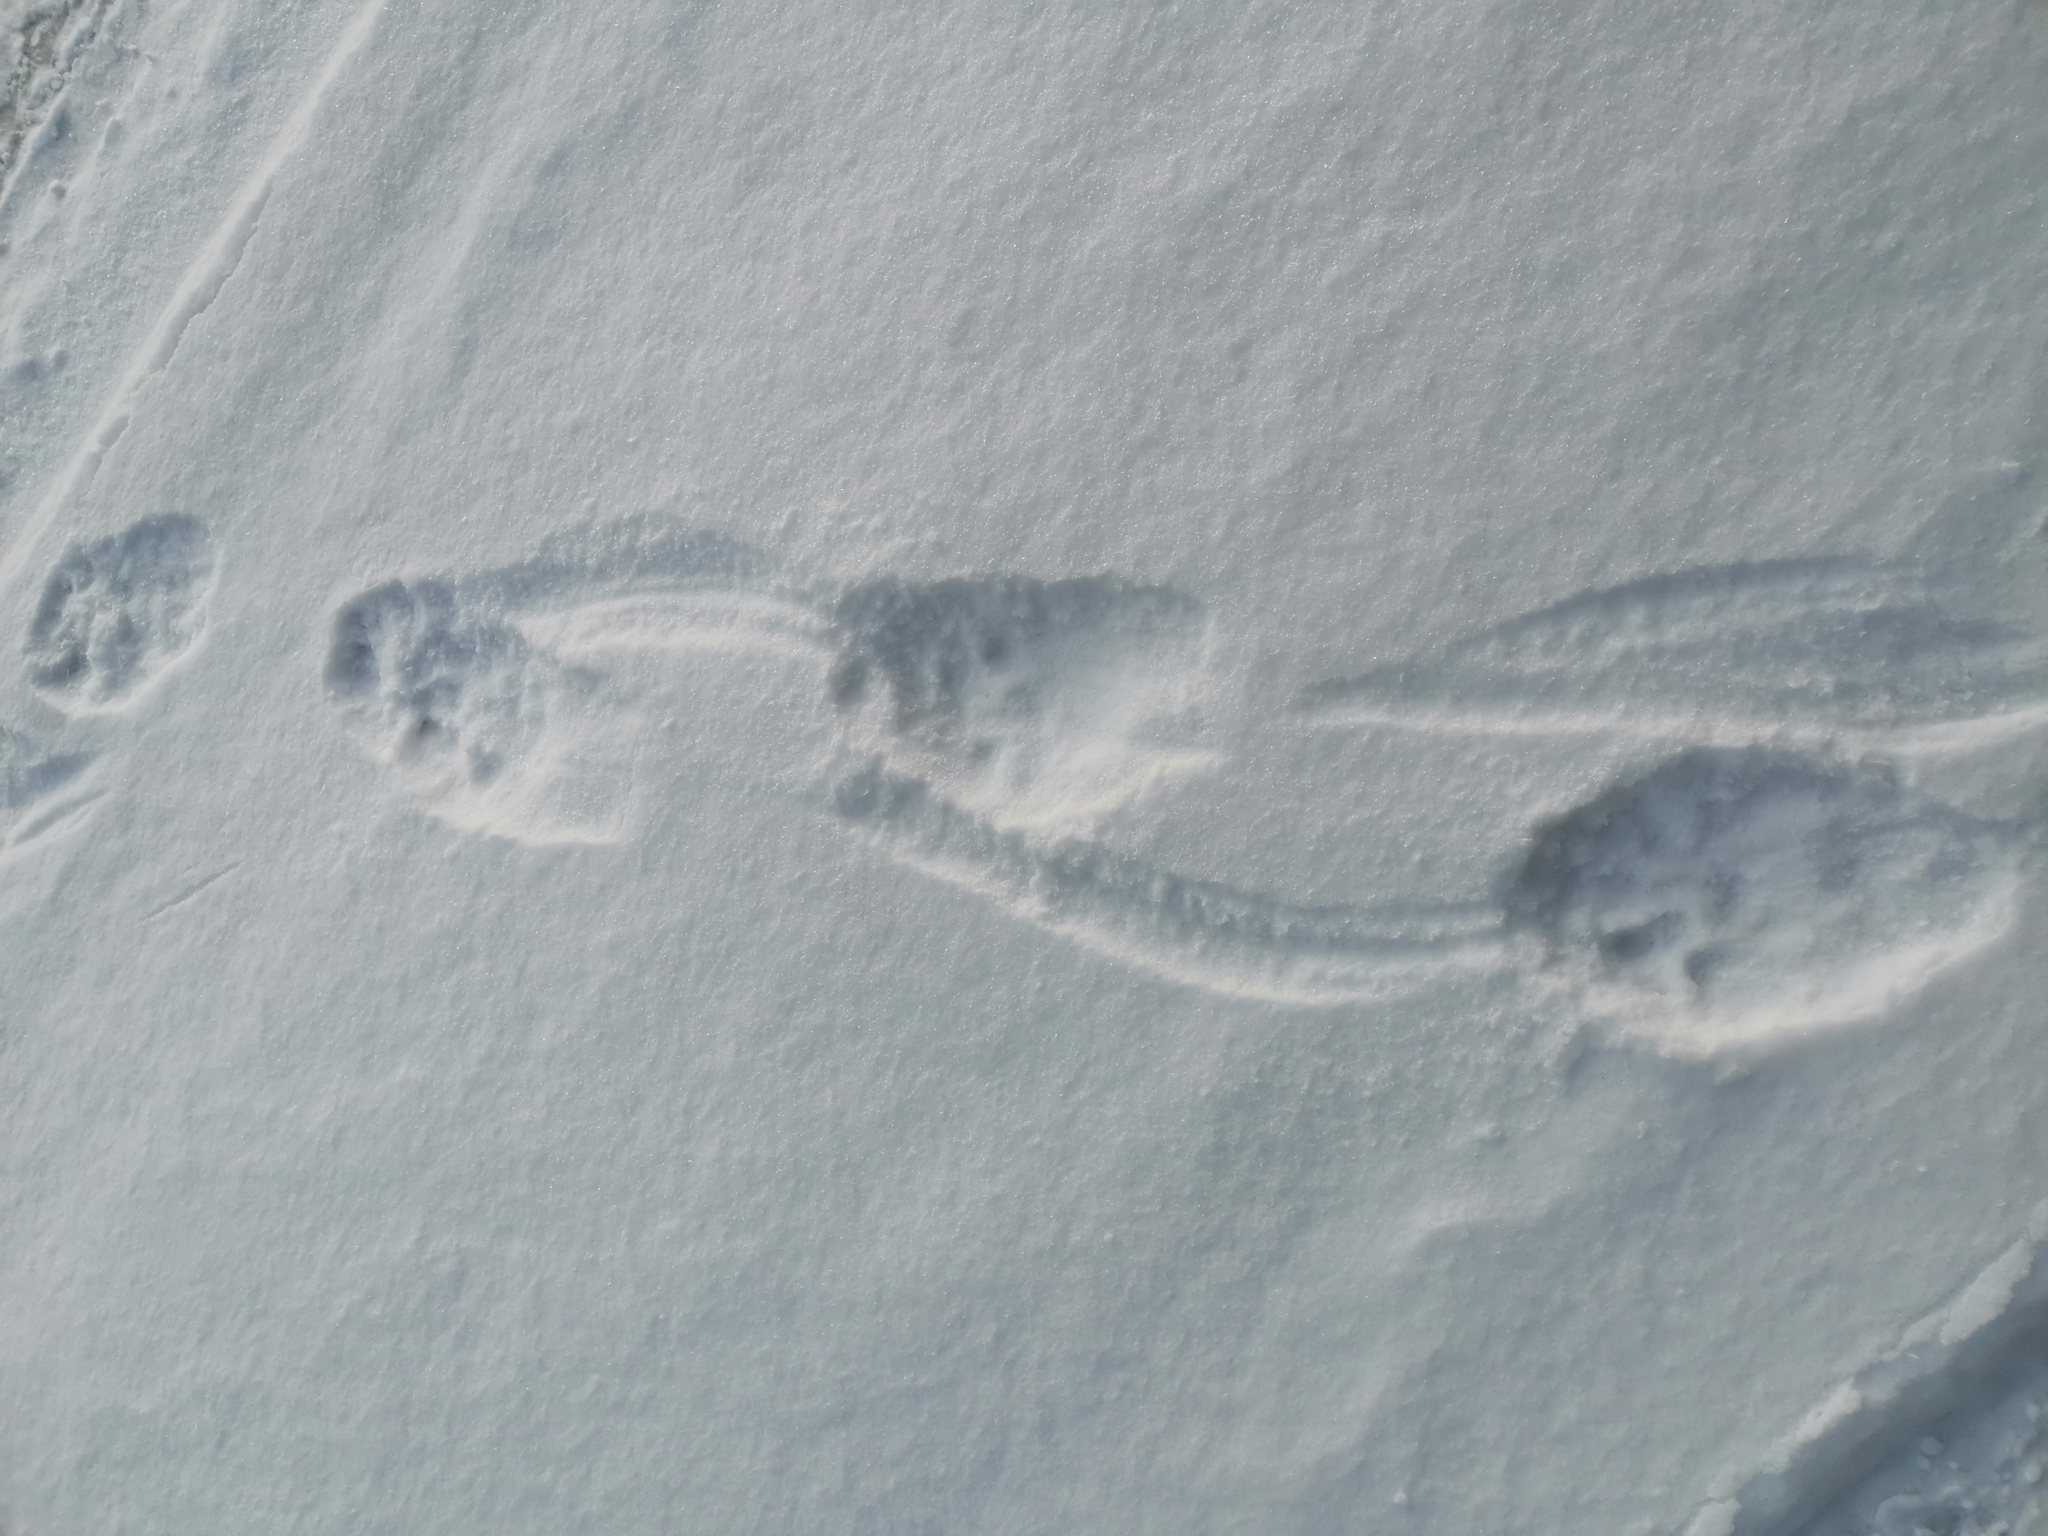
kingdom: Animalia
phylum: Chordata
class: Mammalia
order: Carnivora
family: Mustelidae
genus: Gulo
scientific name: Gulo gulo
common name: Wolverine
